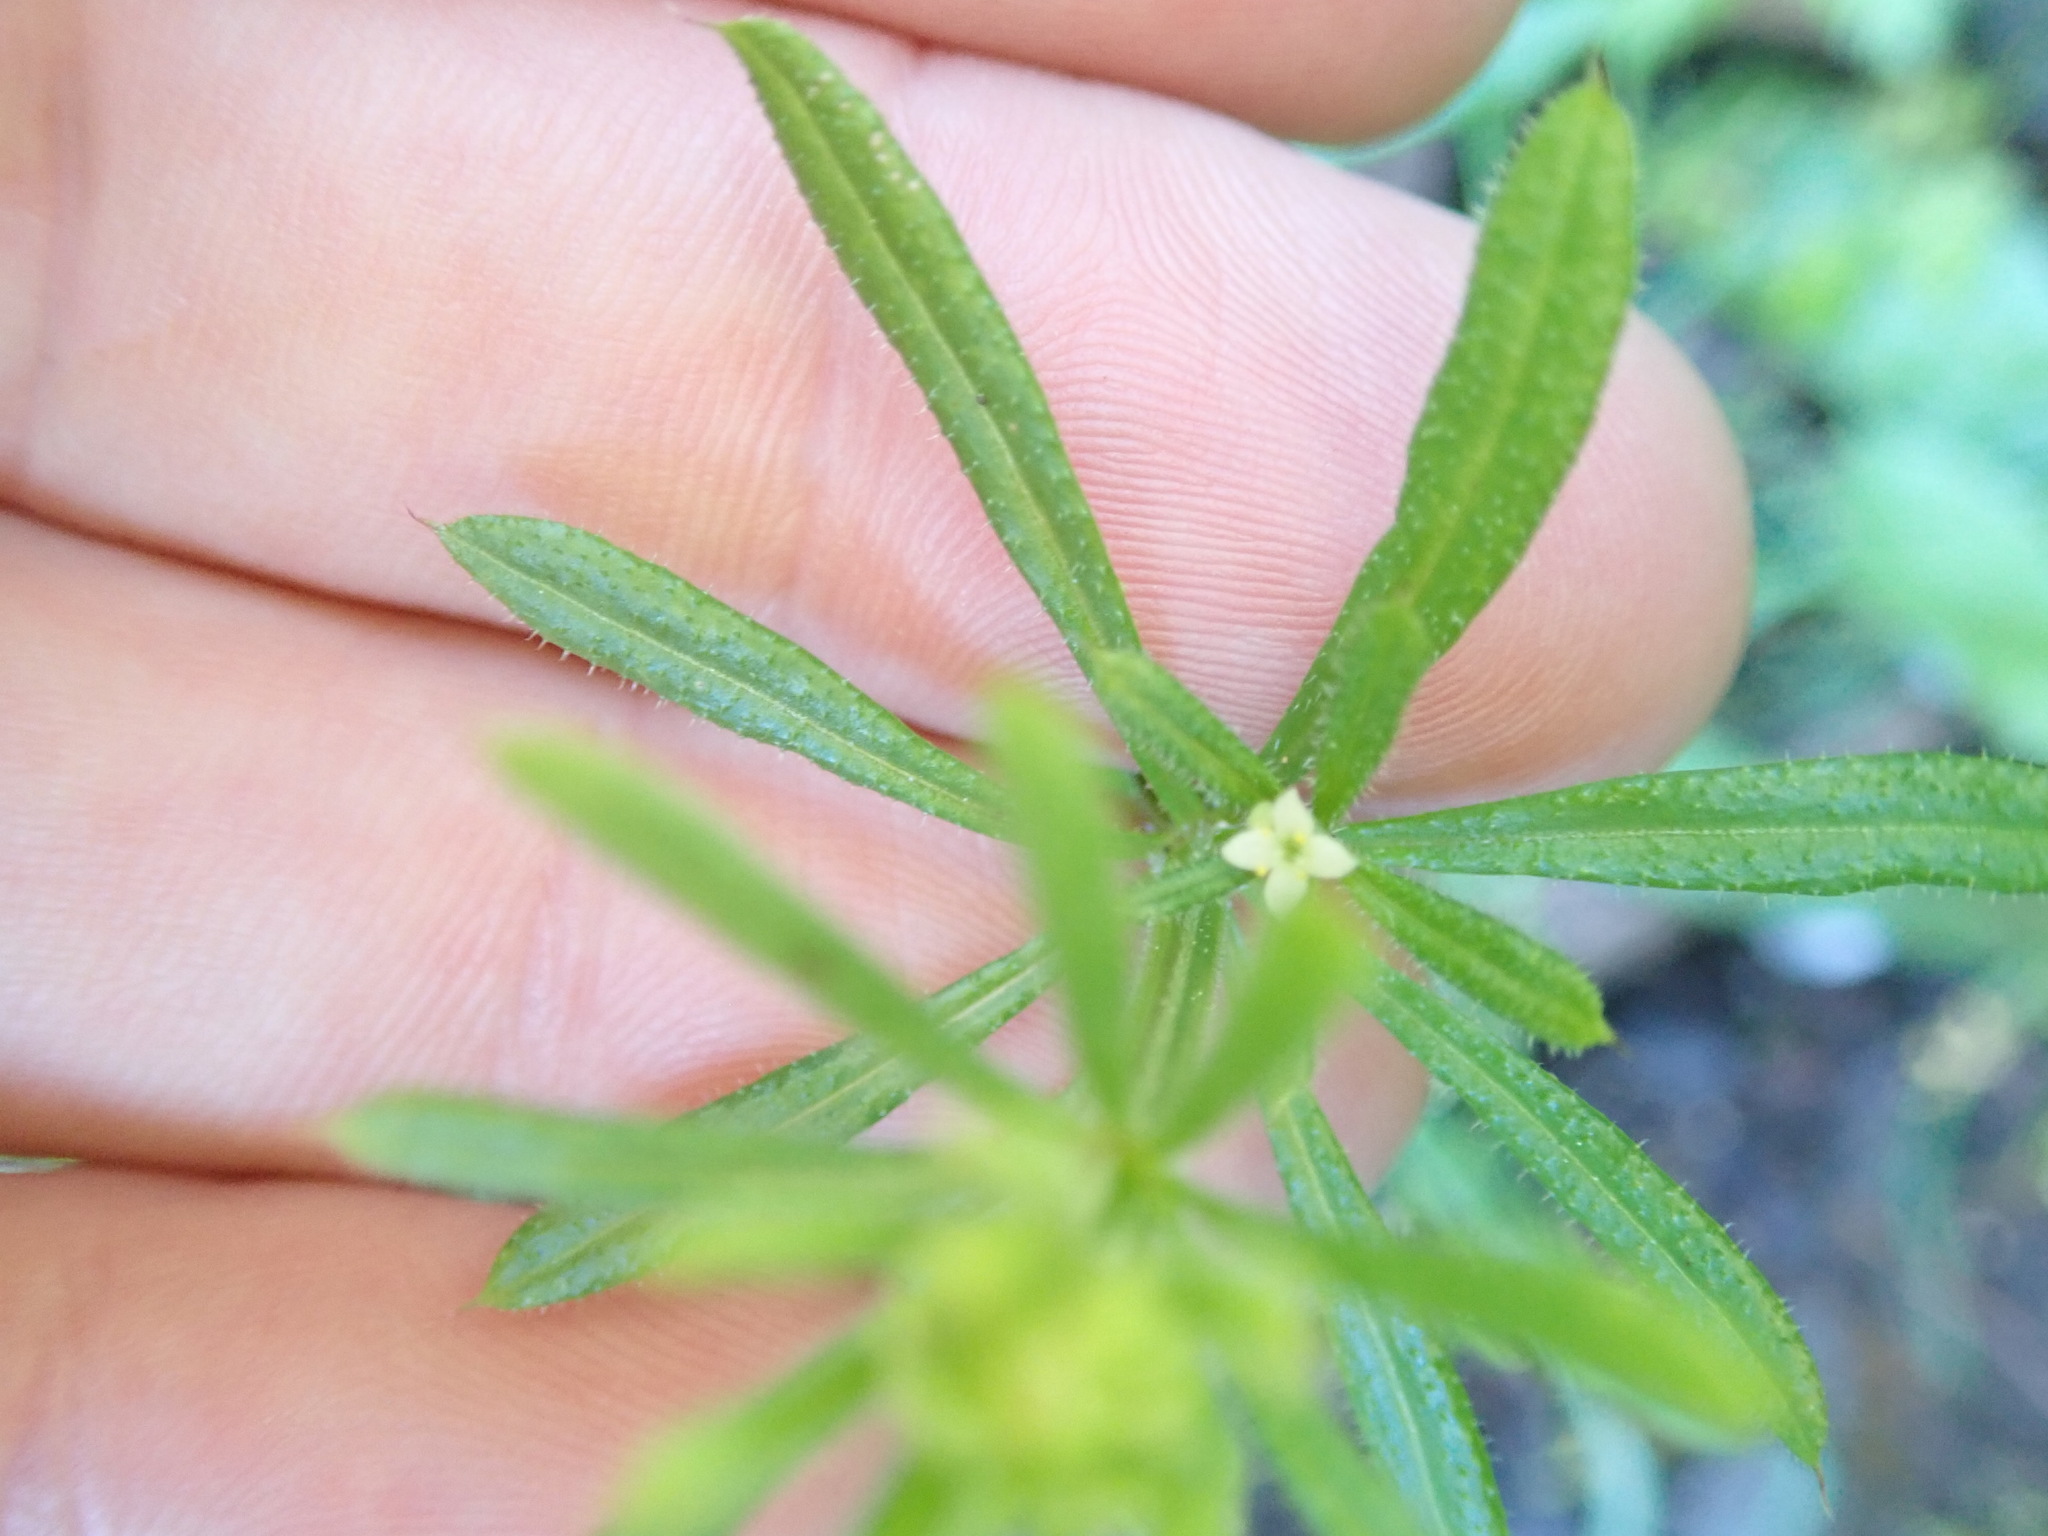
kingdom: Plantae
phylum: Tracheophyta
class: Magnoliopsida
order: Gentianales
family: Rubiaceae
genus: Galium
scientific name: Galium aparine
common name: Cleavers
